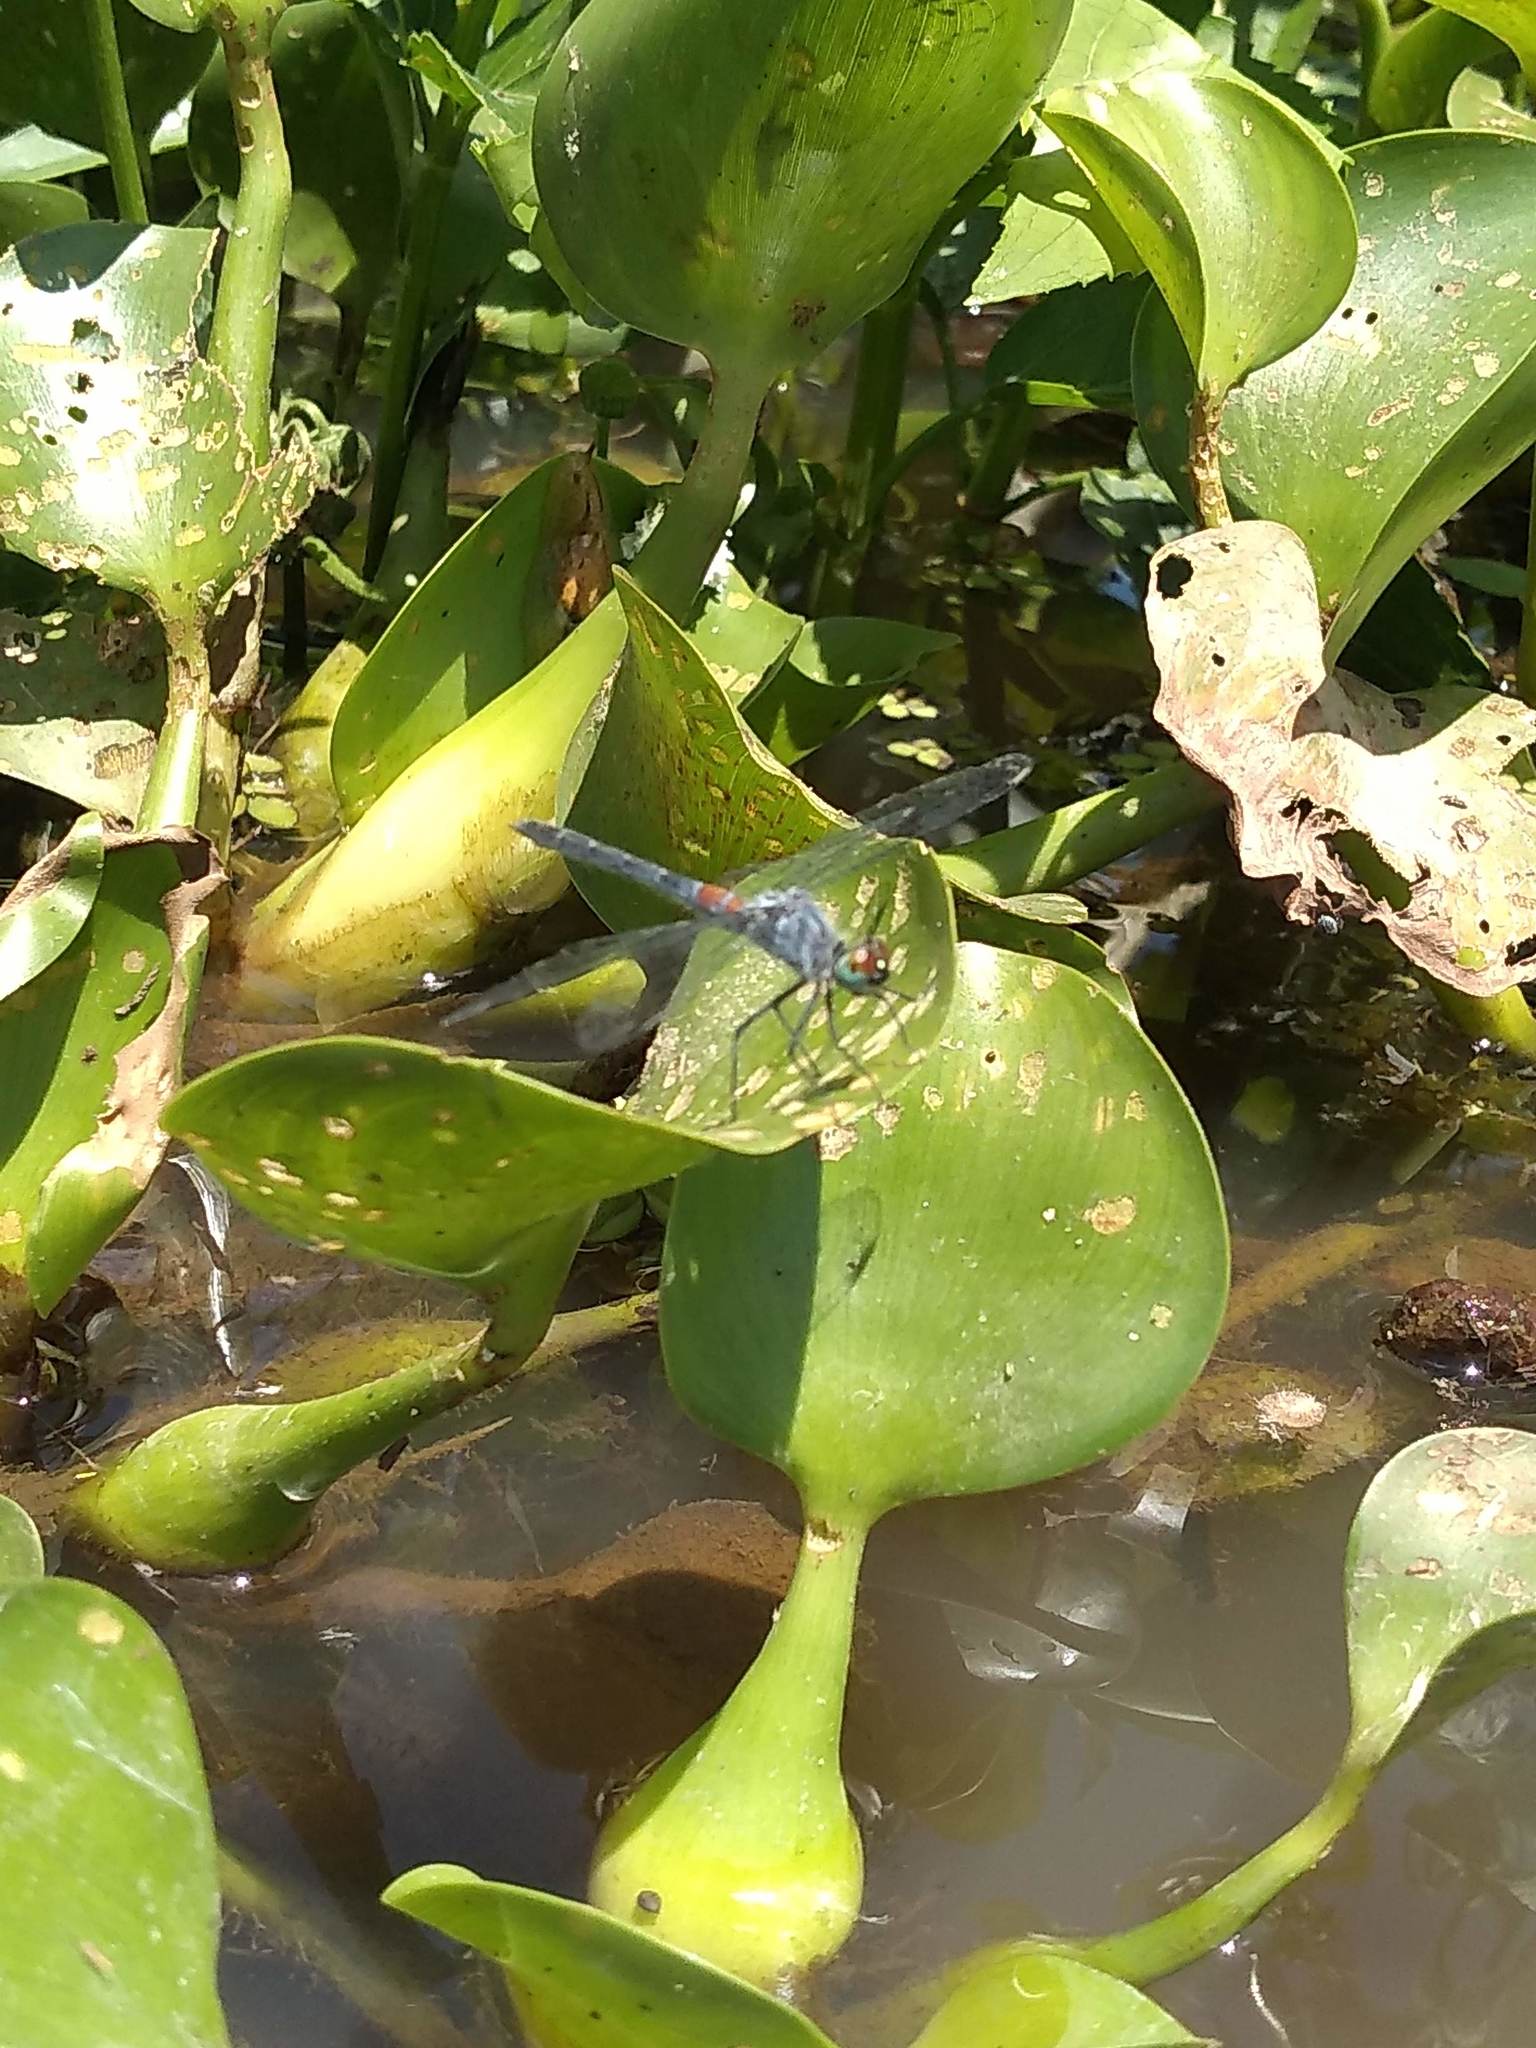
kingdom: Animalia
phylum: Arthropoda
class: Insecta
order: Odonata
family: Libellulidae
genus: Oligoclada
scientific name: Oligoclada rubribasalis
